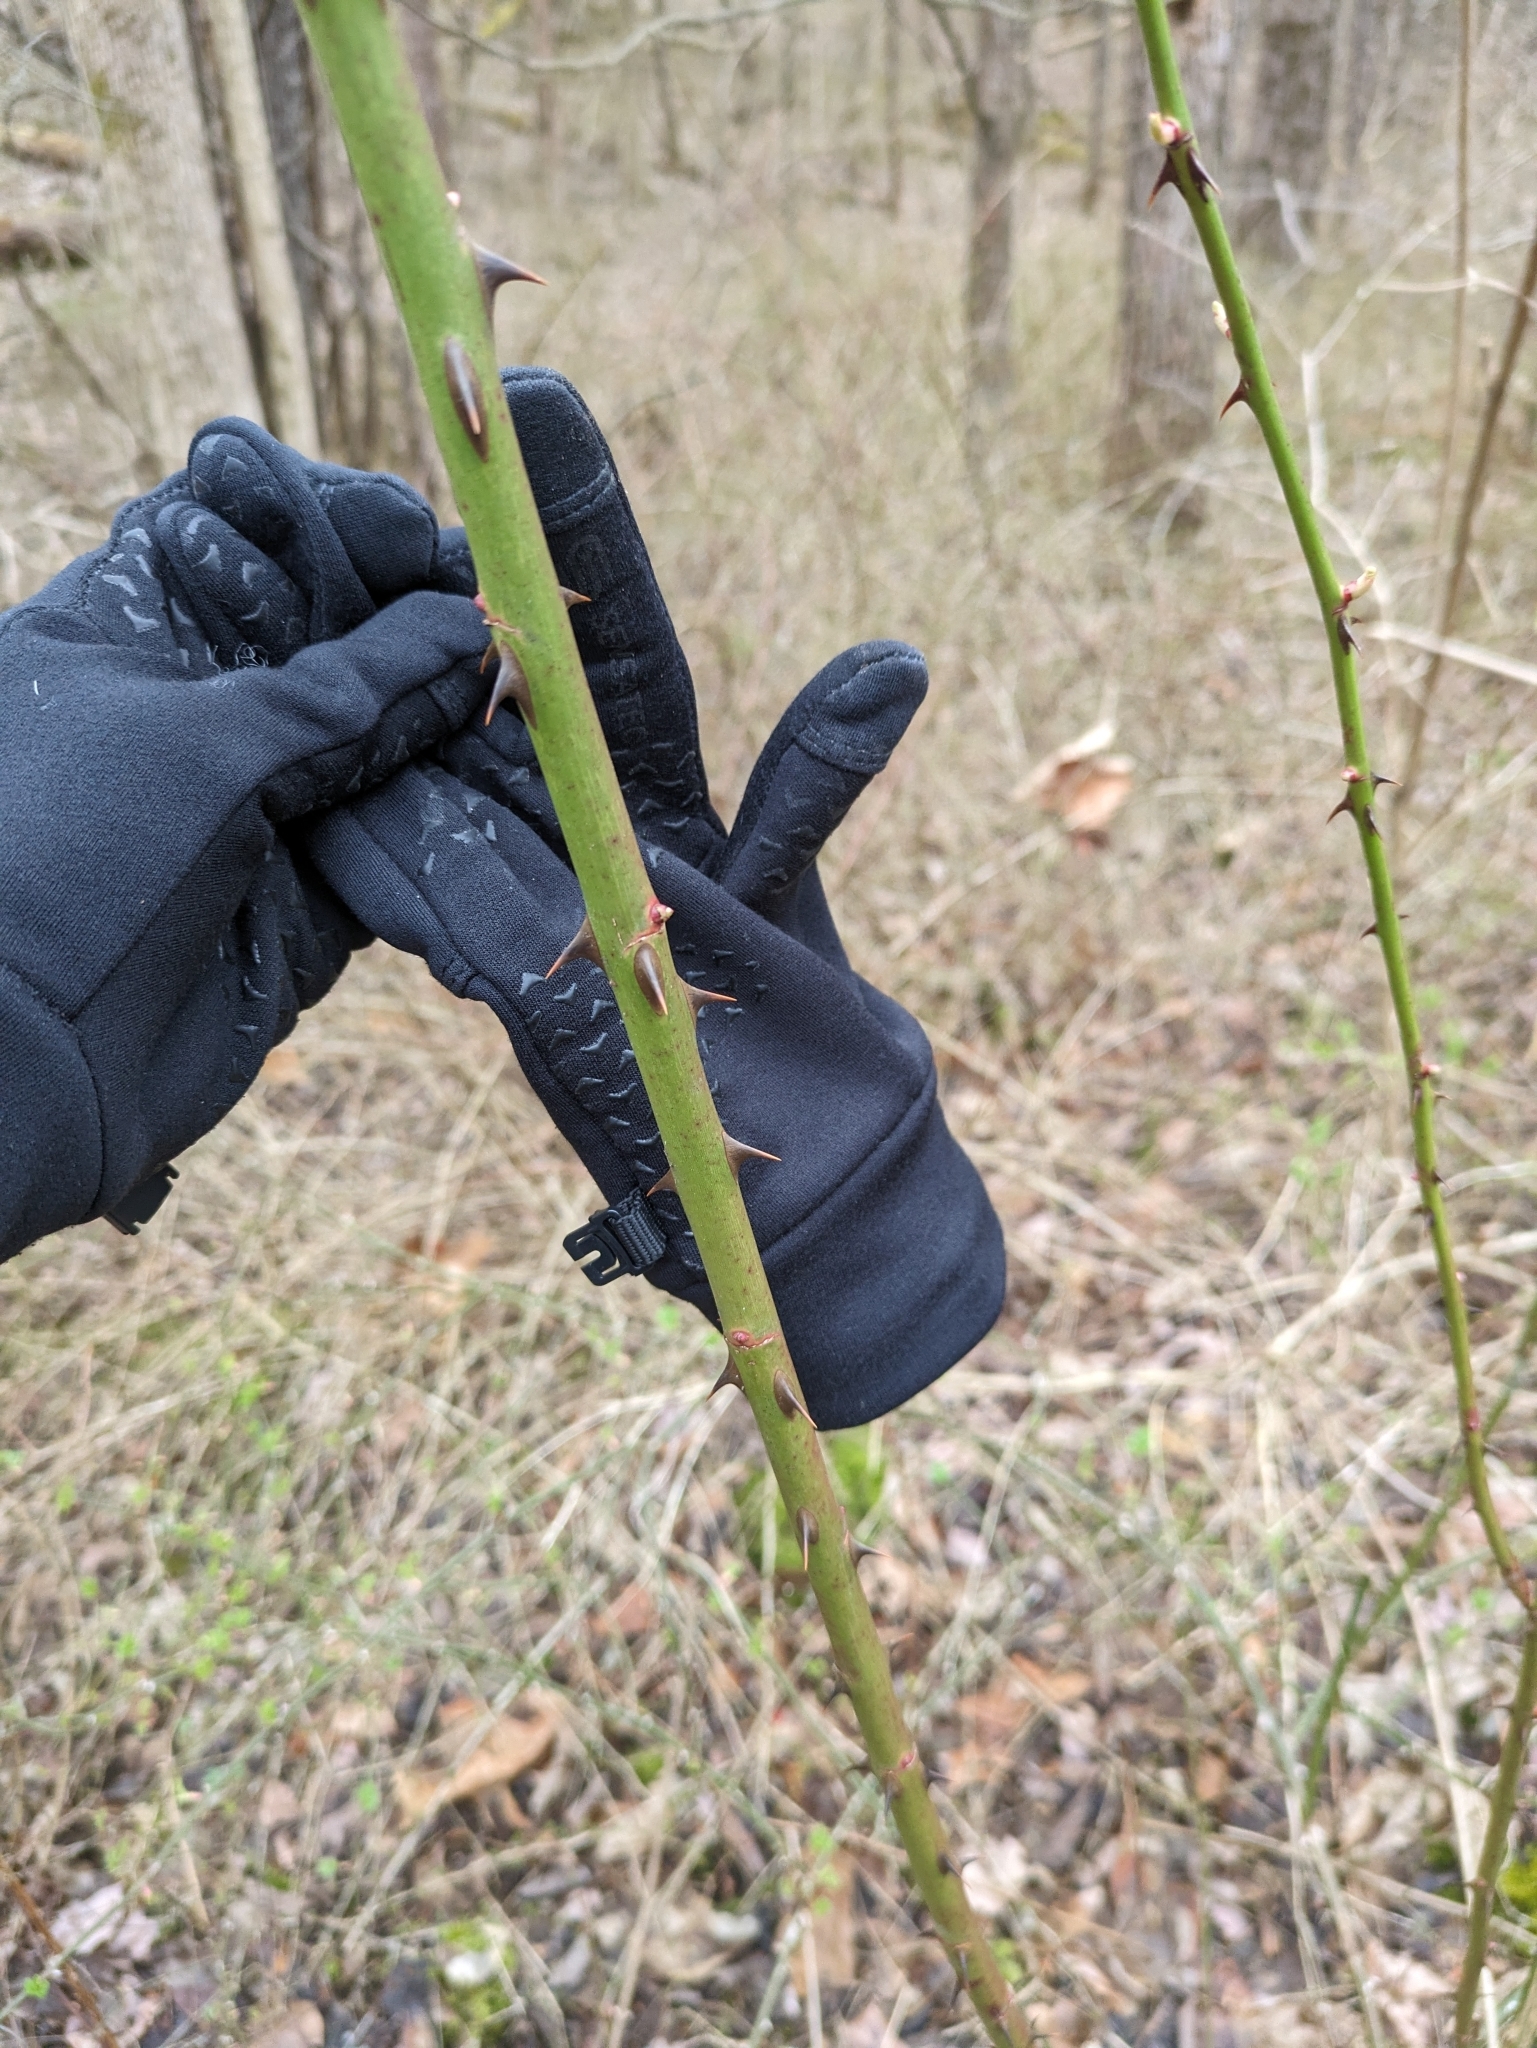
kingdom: Plantae
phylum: Tracheophyta
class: Magnoliopsida
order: Rosales
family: Rosaceae
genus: Rosa
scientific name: Rosa multiflora
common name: Multiflora rose
